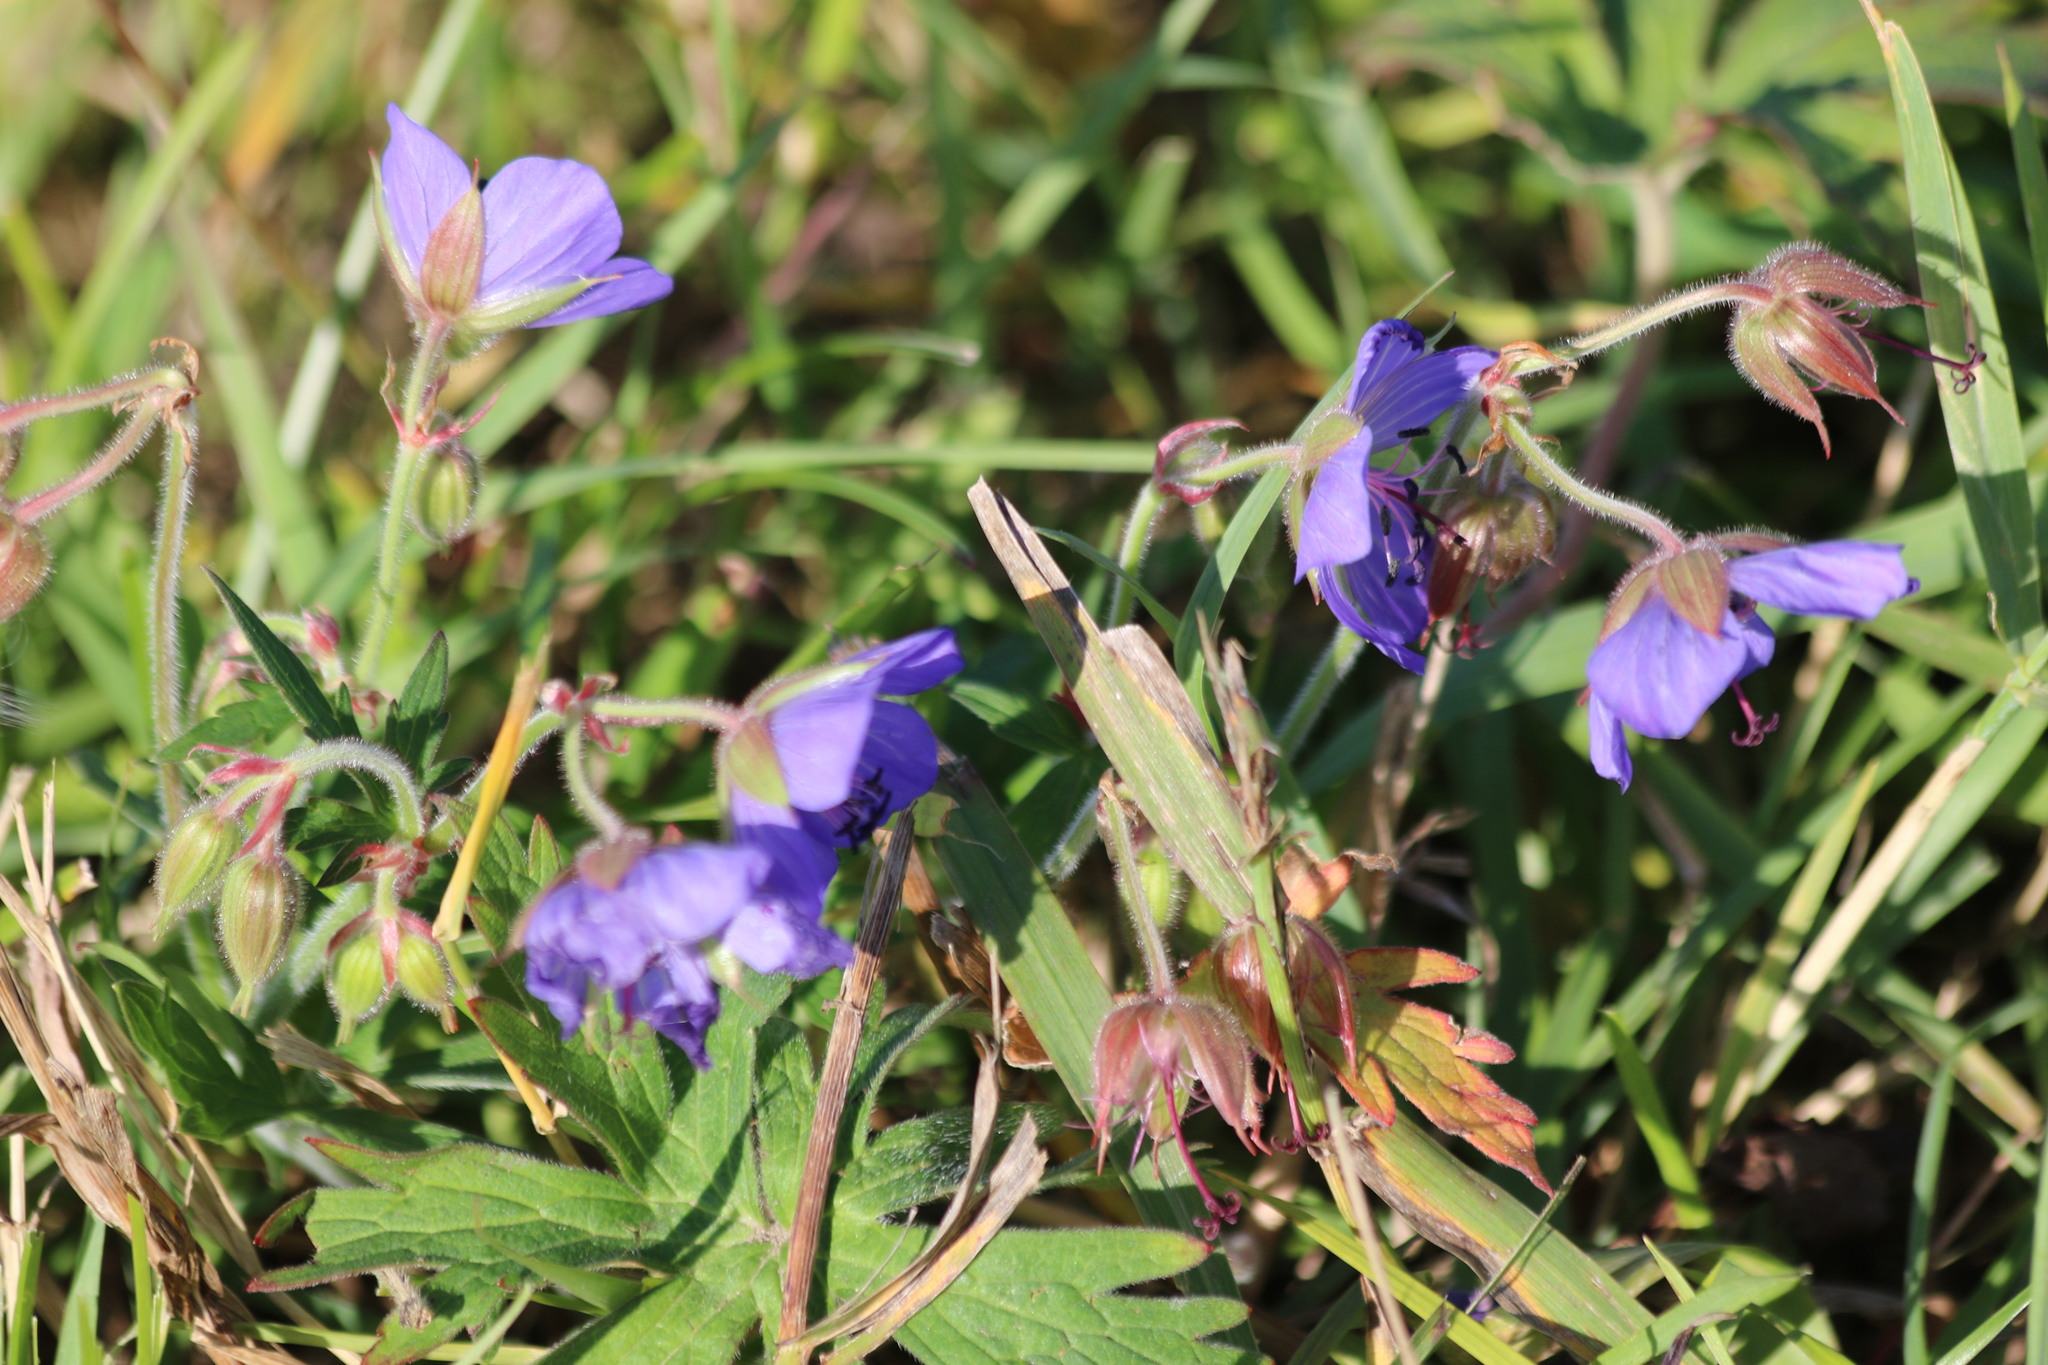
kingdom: Plantae
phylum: Tracheophyta
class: Magnoliopsida
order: Geraniales
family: Geraniaceae
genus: Geranium
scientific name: Geranium pratense
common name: Meadow crane's-bill
